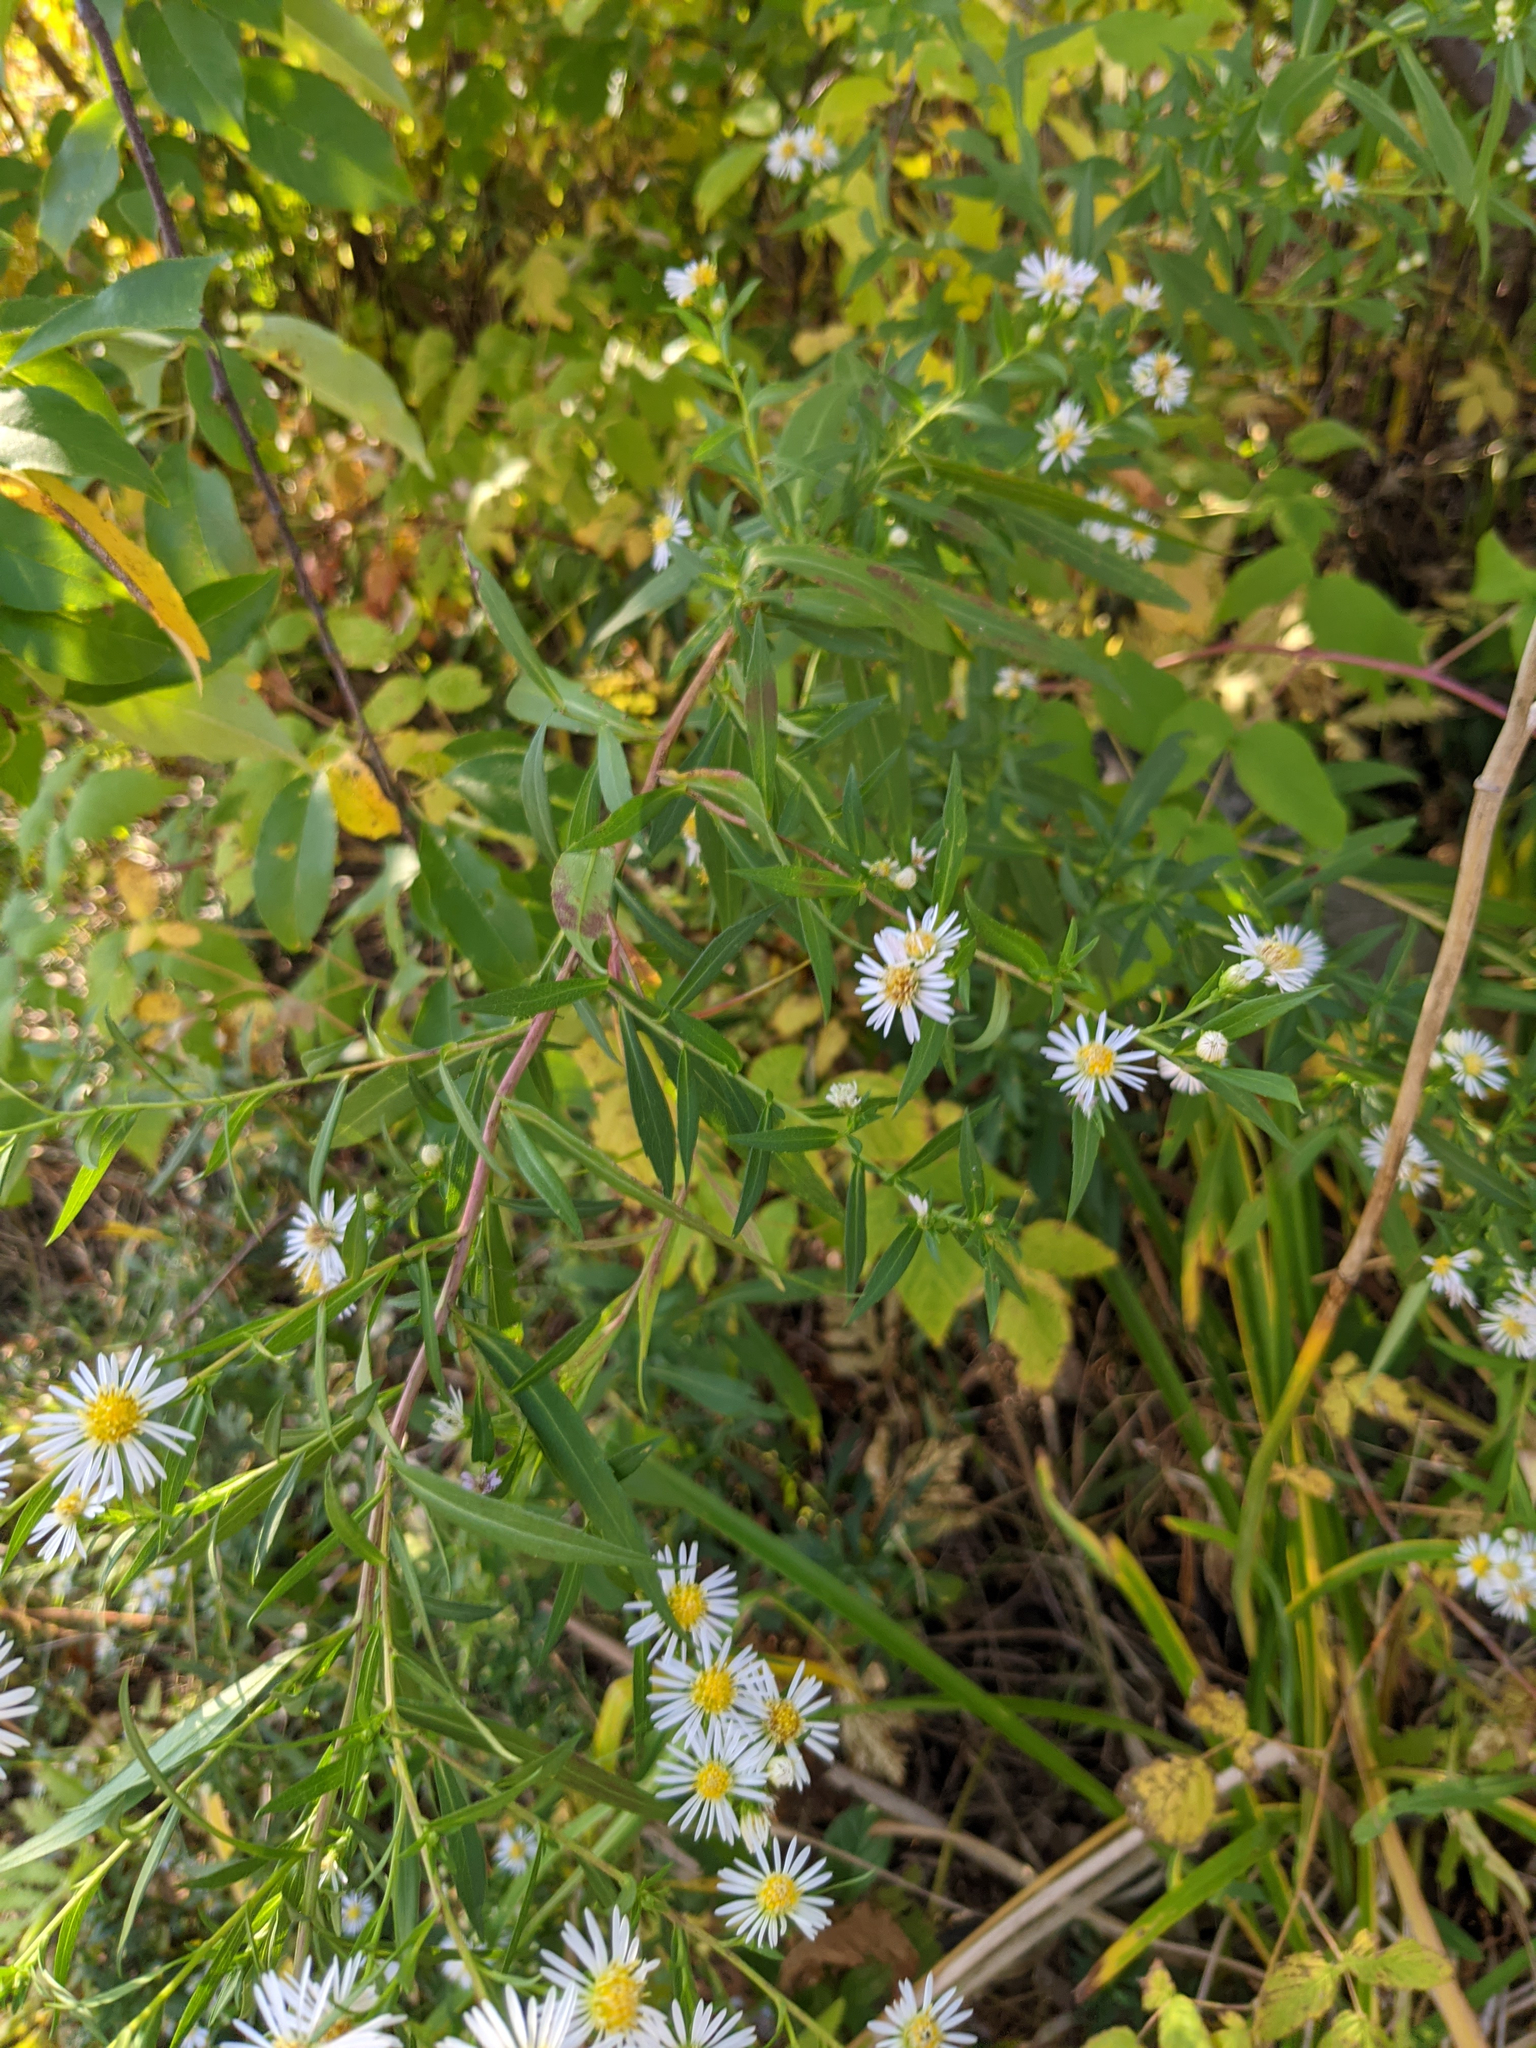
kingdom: Plantae
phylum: Tracheophyta
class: Magnoliopsida
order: Asterales
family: Asteraceae
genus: Symphyotrichum
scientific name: Symphyotrichum lanceolatum
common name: Panicled aster
